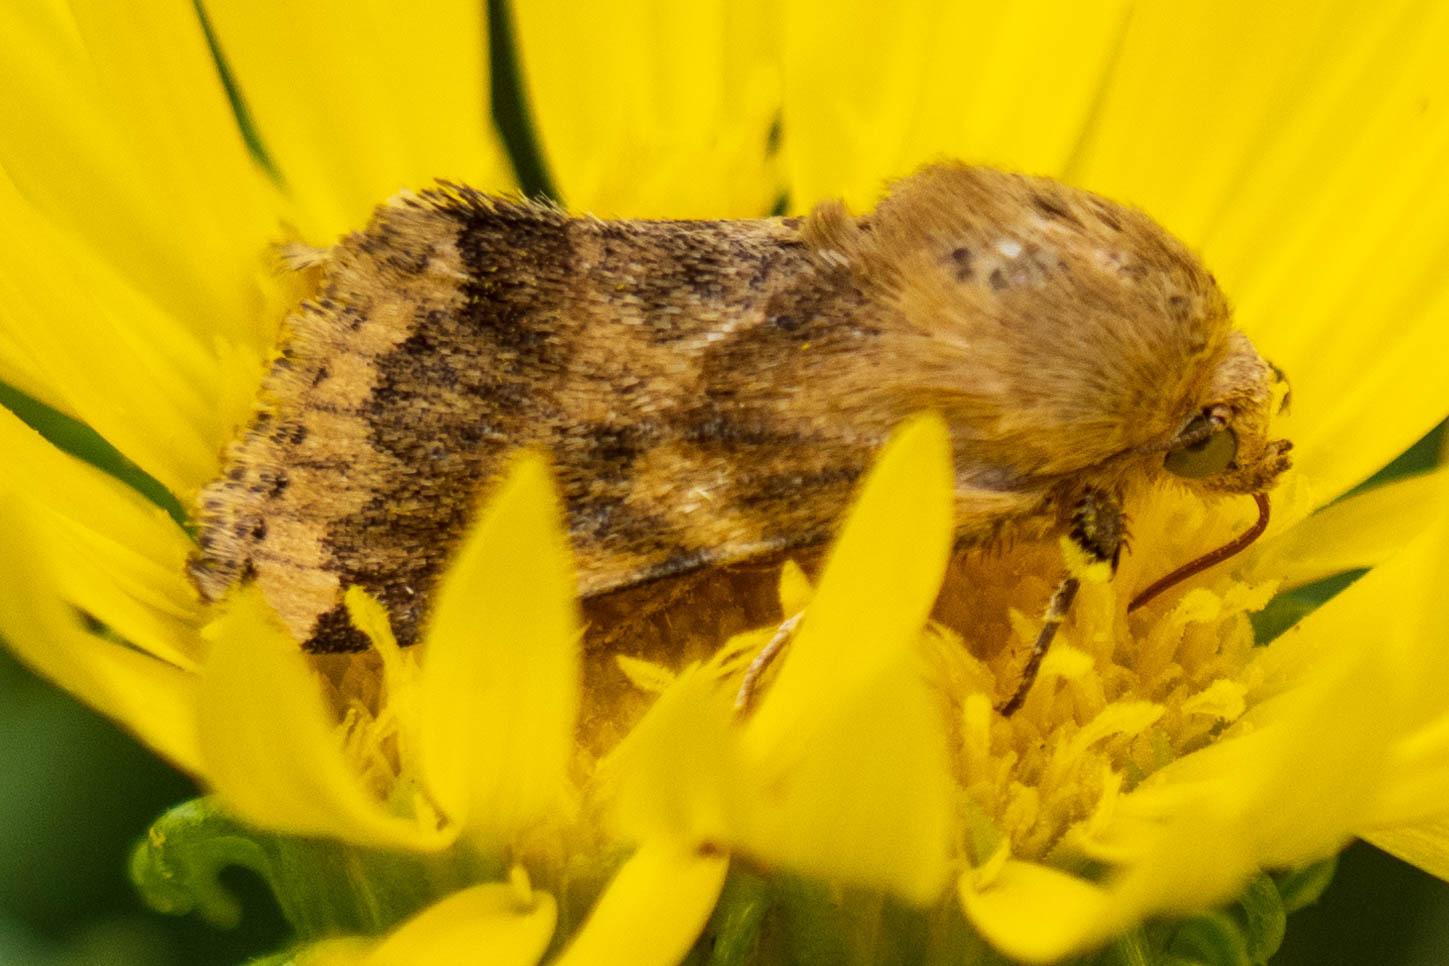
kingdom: Animalia
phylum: Arthropoda
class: Insecta
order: Lepidoptera
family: Noctuidae
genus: Schinia
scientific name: Schinia obscurata
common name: Erigeron flower moth
